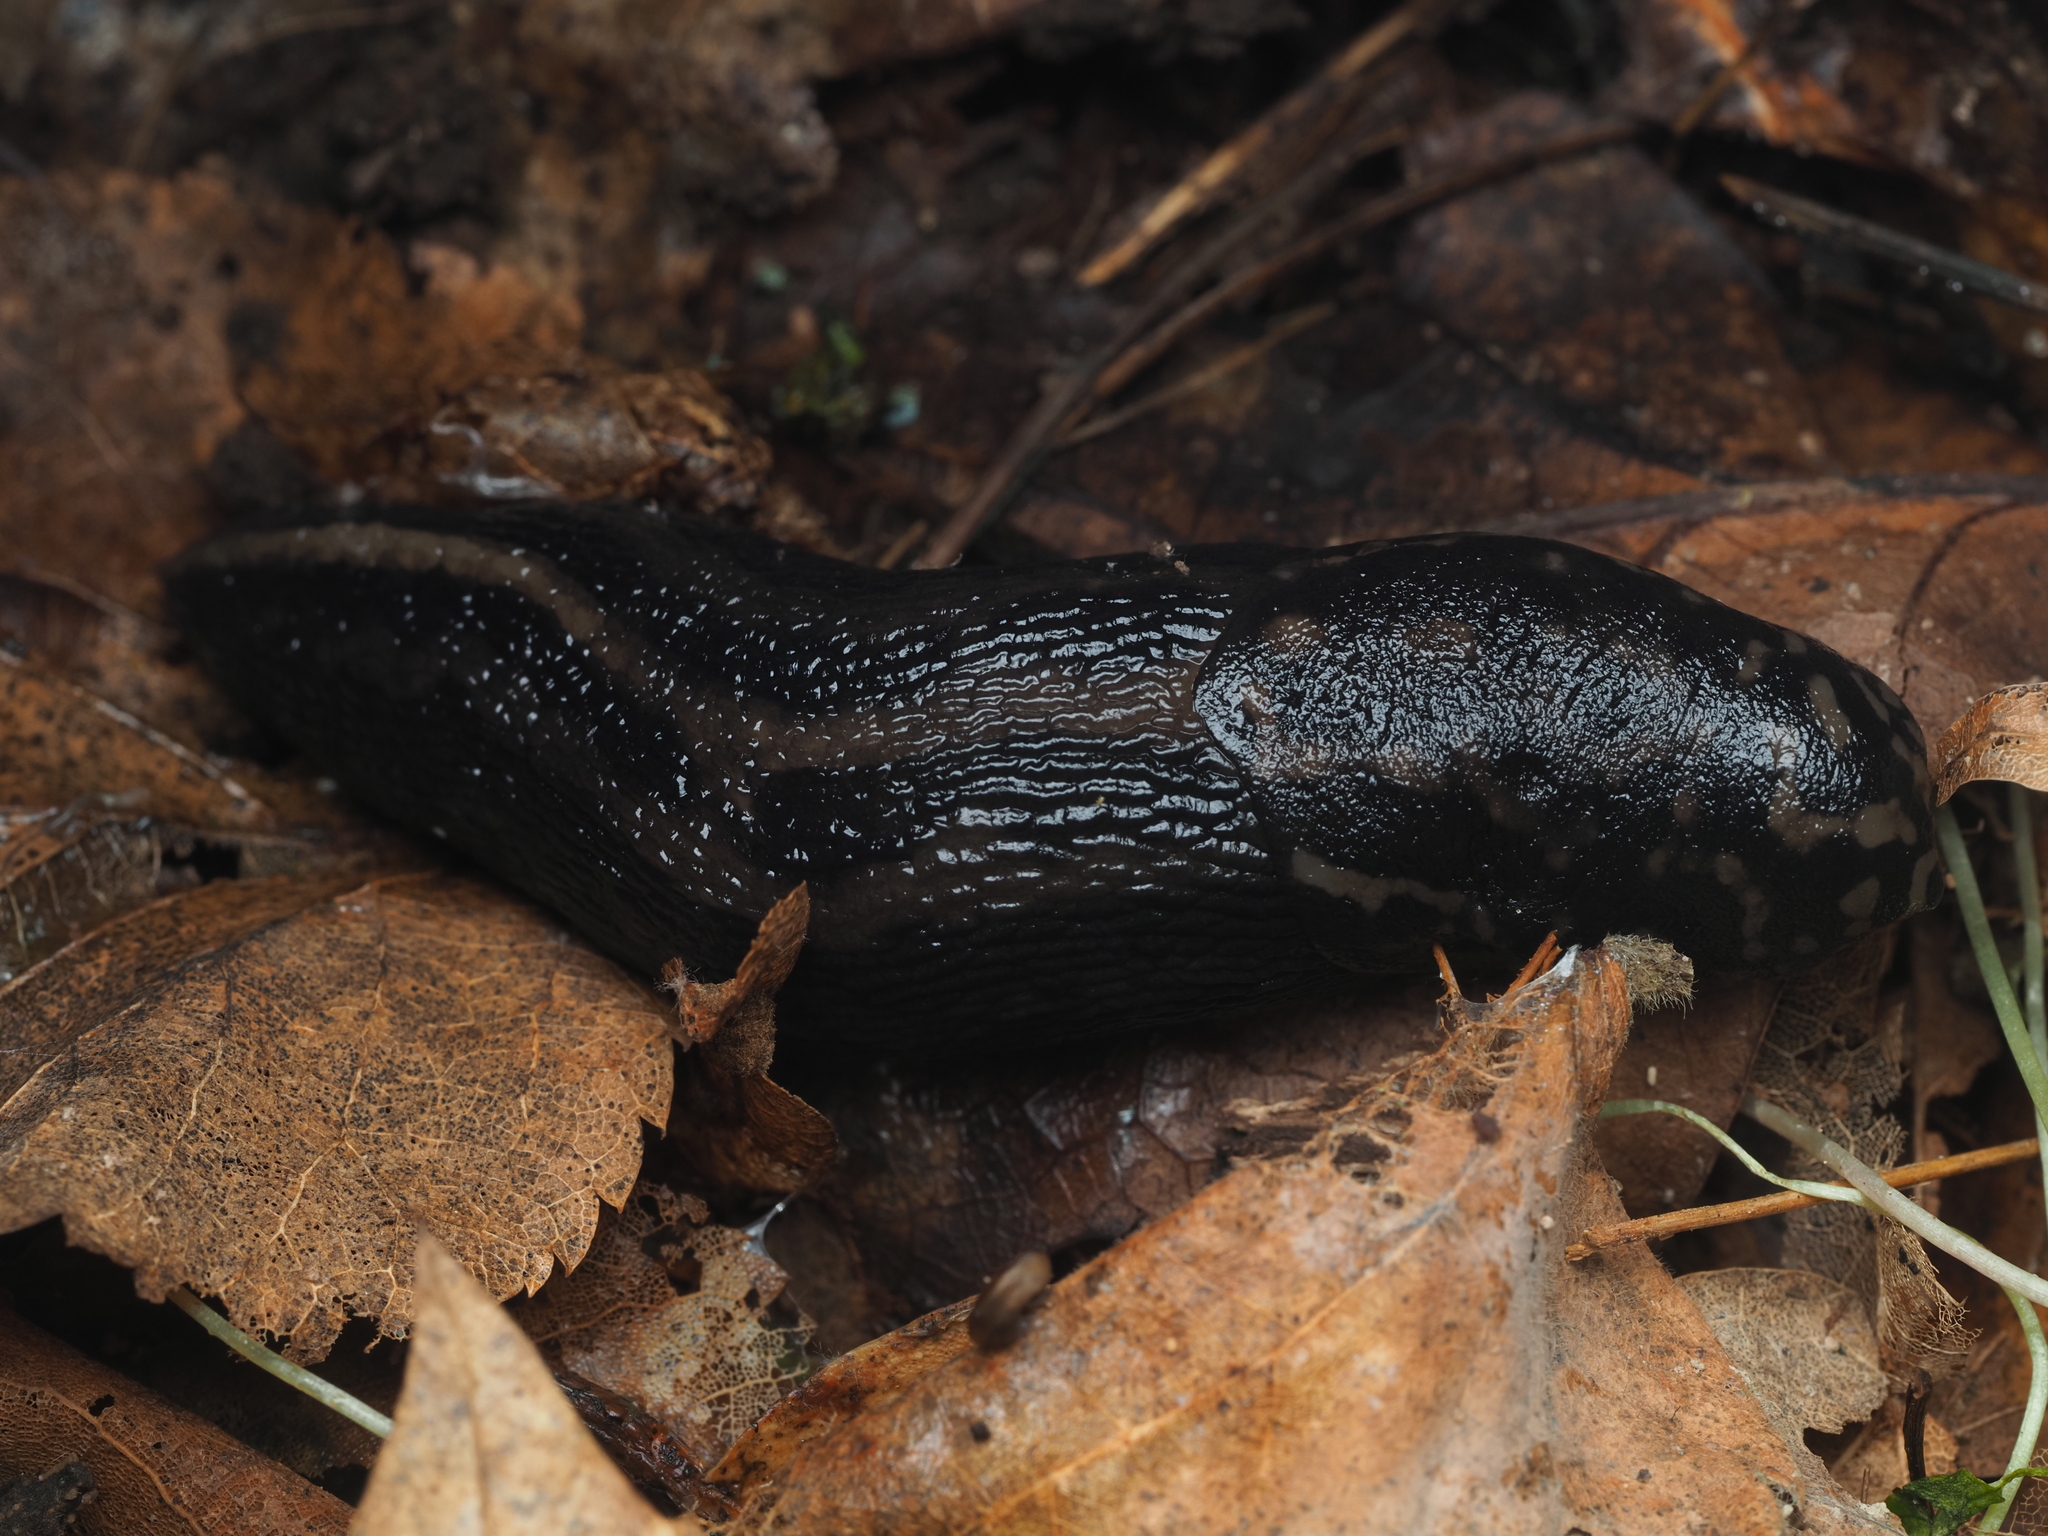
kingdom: Animalia
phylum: Mollusca
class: Gastropoda
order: Stylommatophora
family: Limacidae
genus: Limax
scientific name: Limax maximus
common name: Great grey slug
